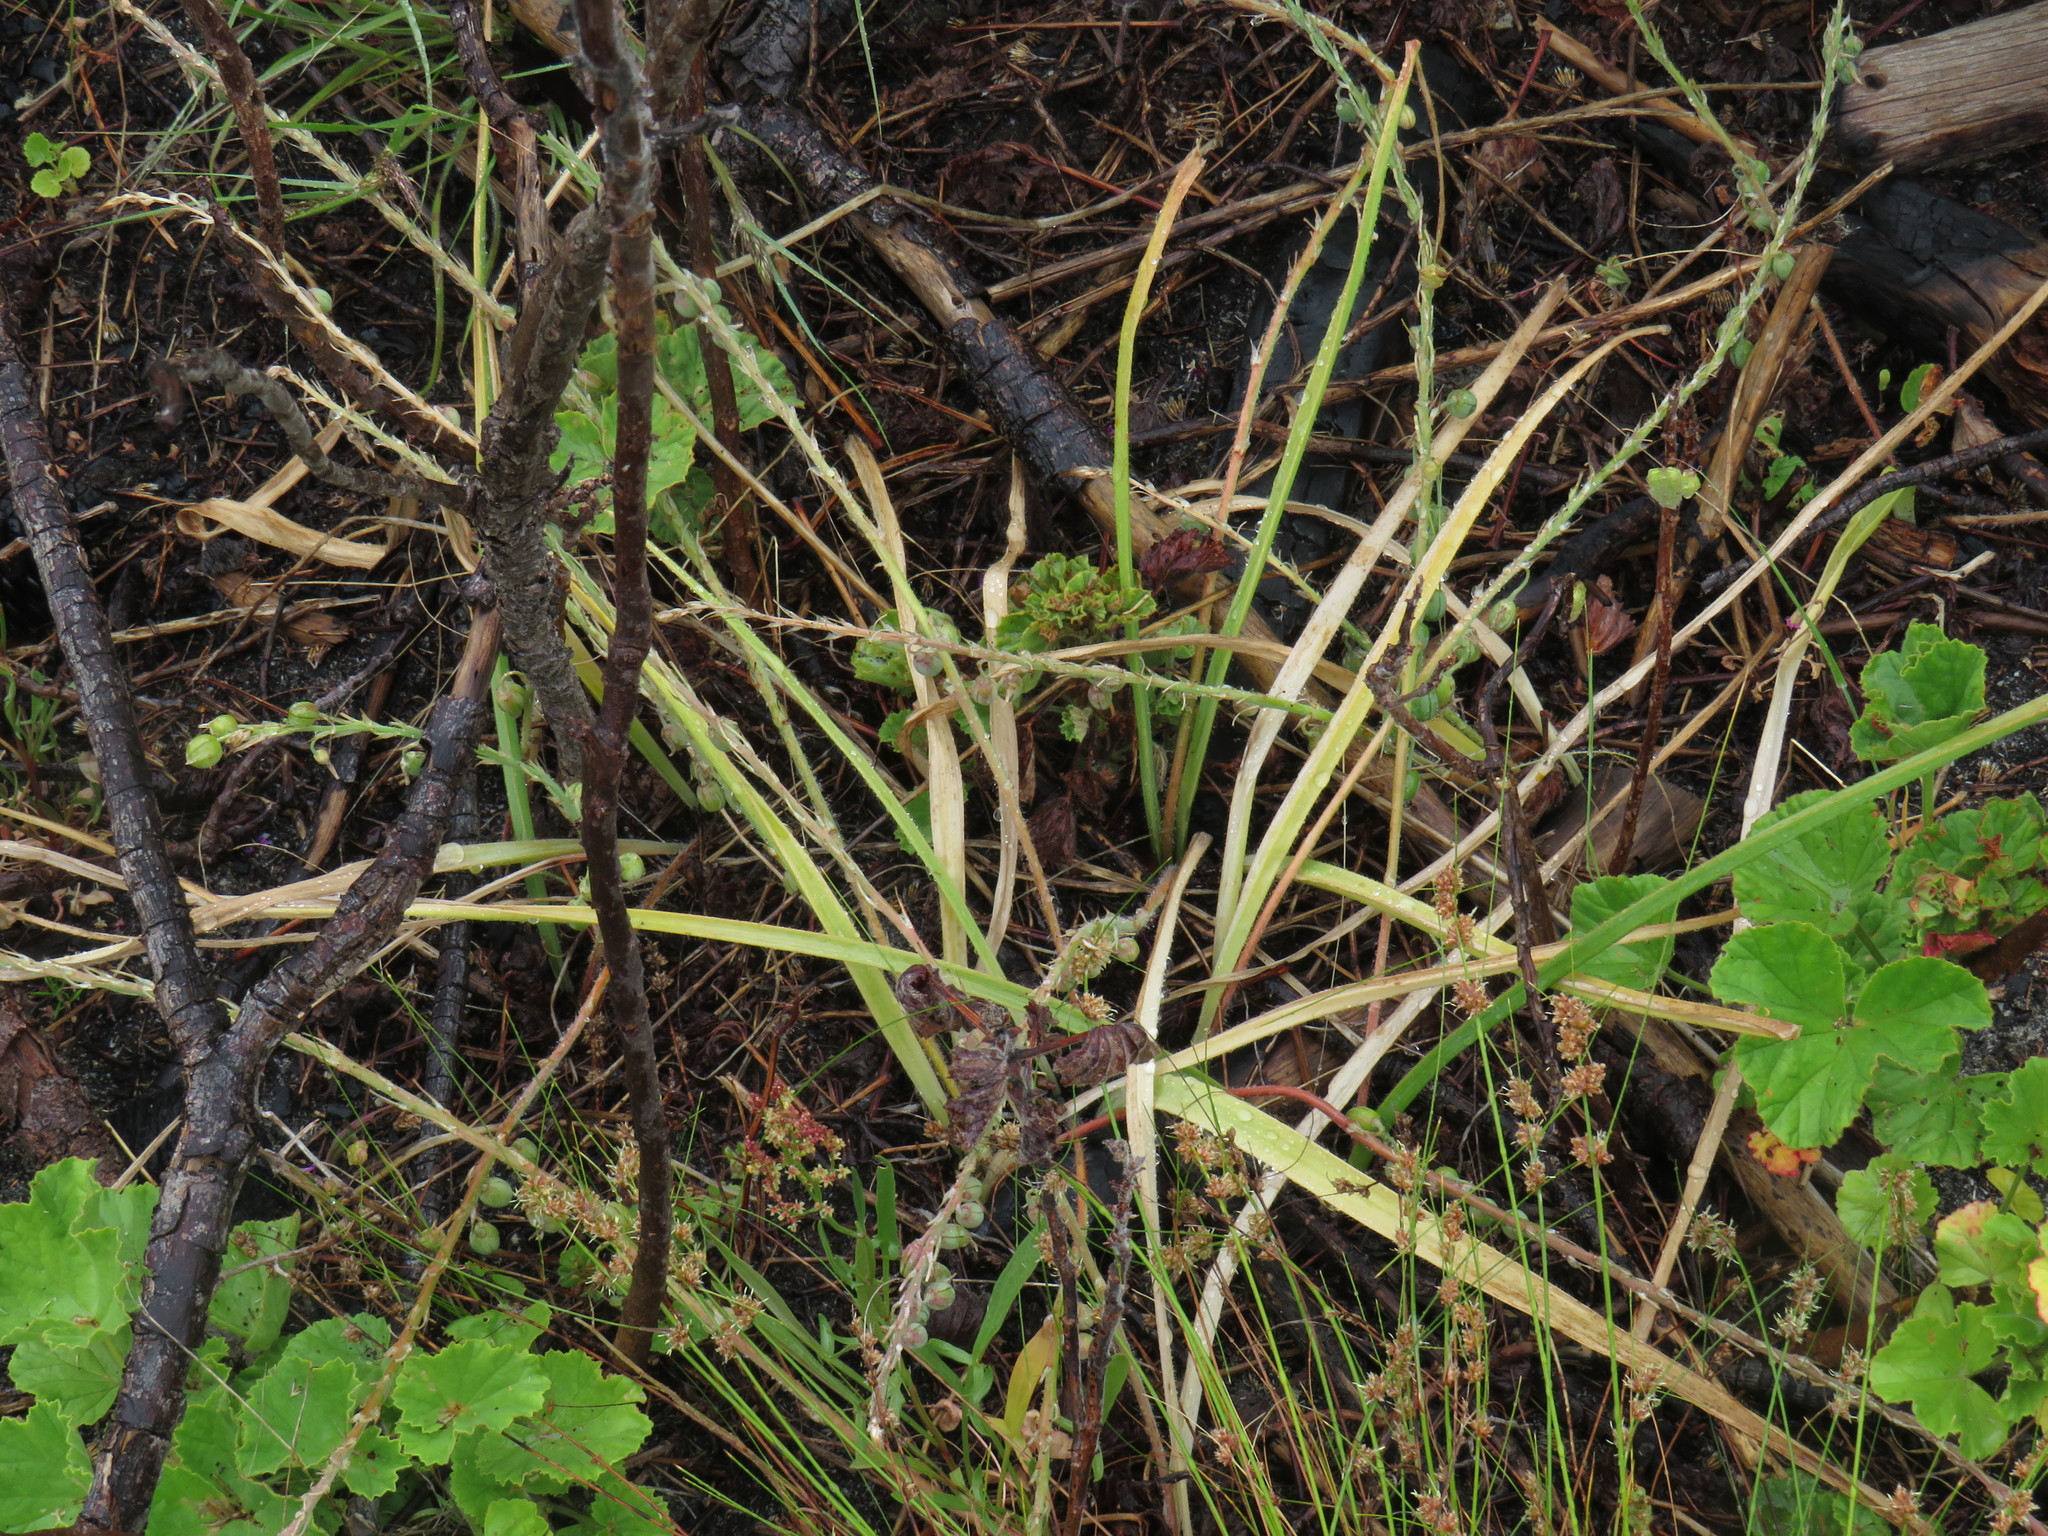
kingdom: Plantae
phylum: Tracheophyta
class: Liliopsida
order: Asparagales
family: Asphodelaceae
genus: Trachyandra
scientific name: Trachyandra ciliata
